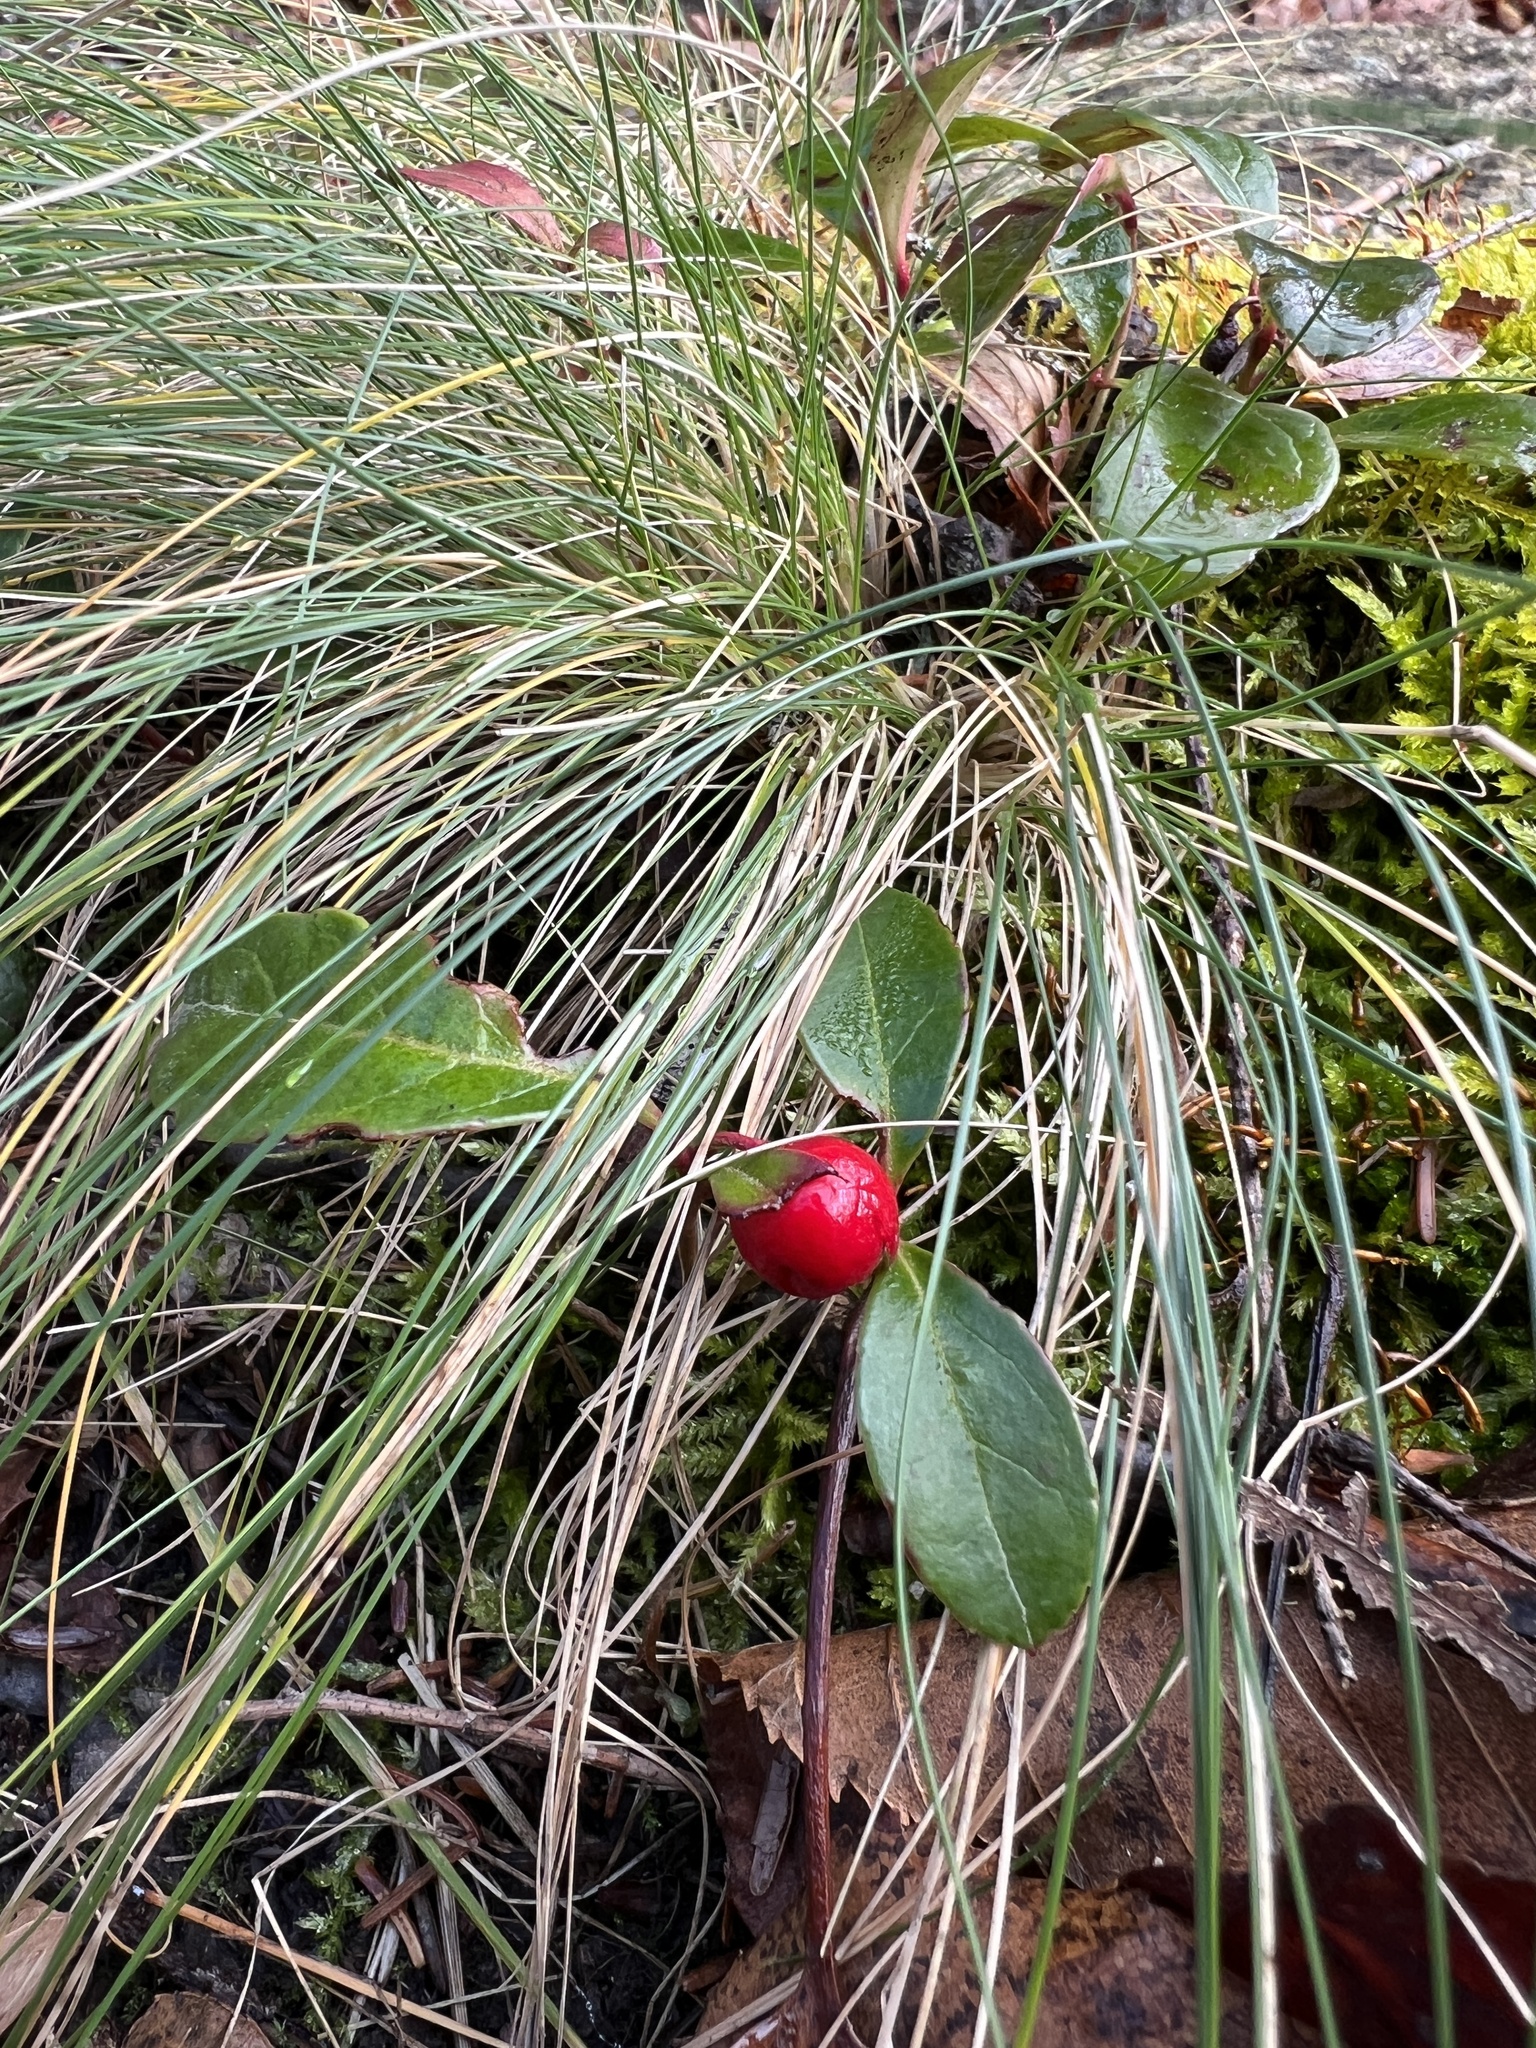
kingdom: Plantae
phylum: Tracheophyta
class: Magnoliopsida
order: Ericales
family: Ericaceae
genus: Gaultheria
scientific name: Gaultheria procumbens
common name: Checkerberry
